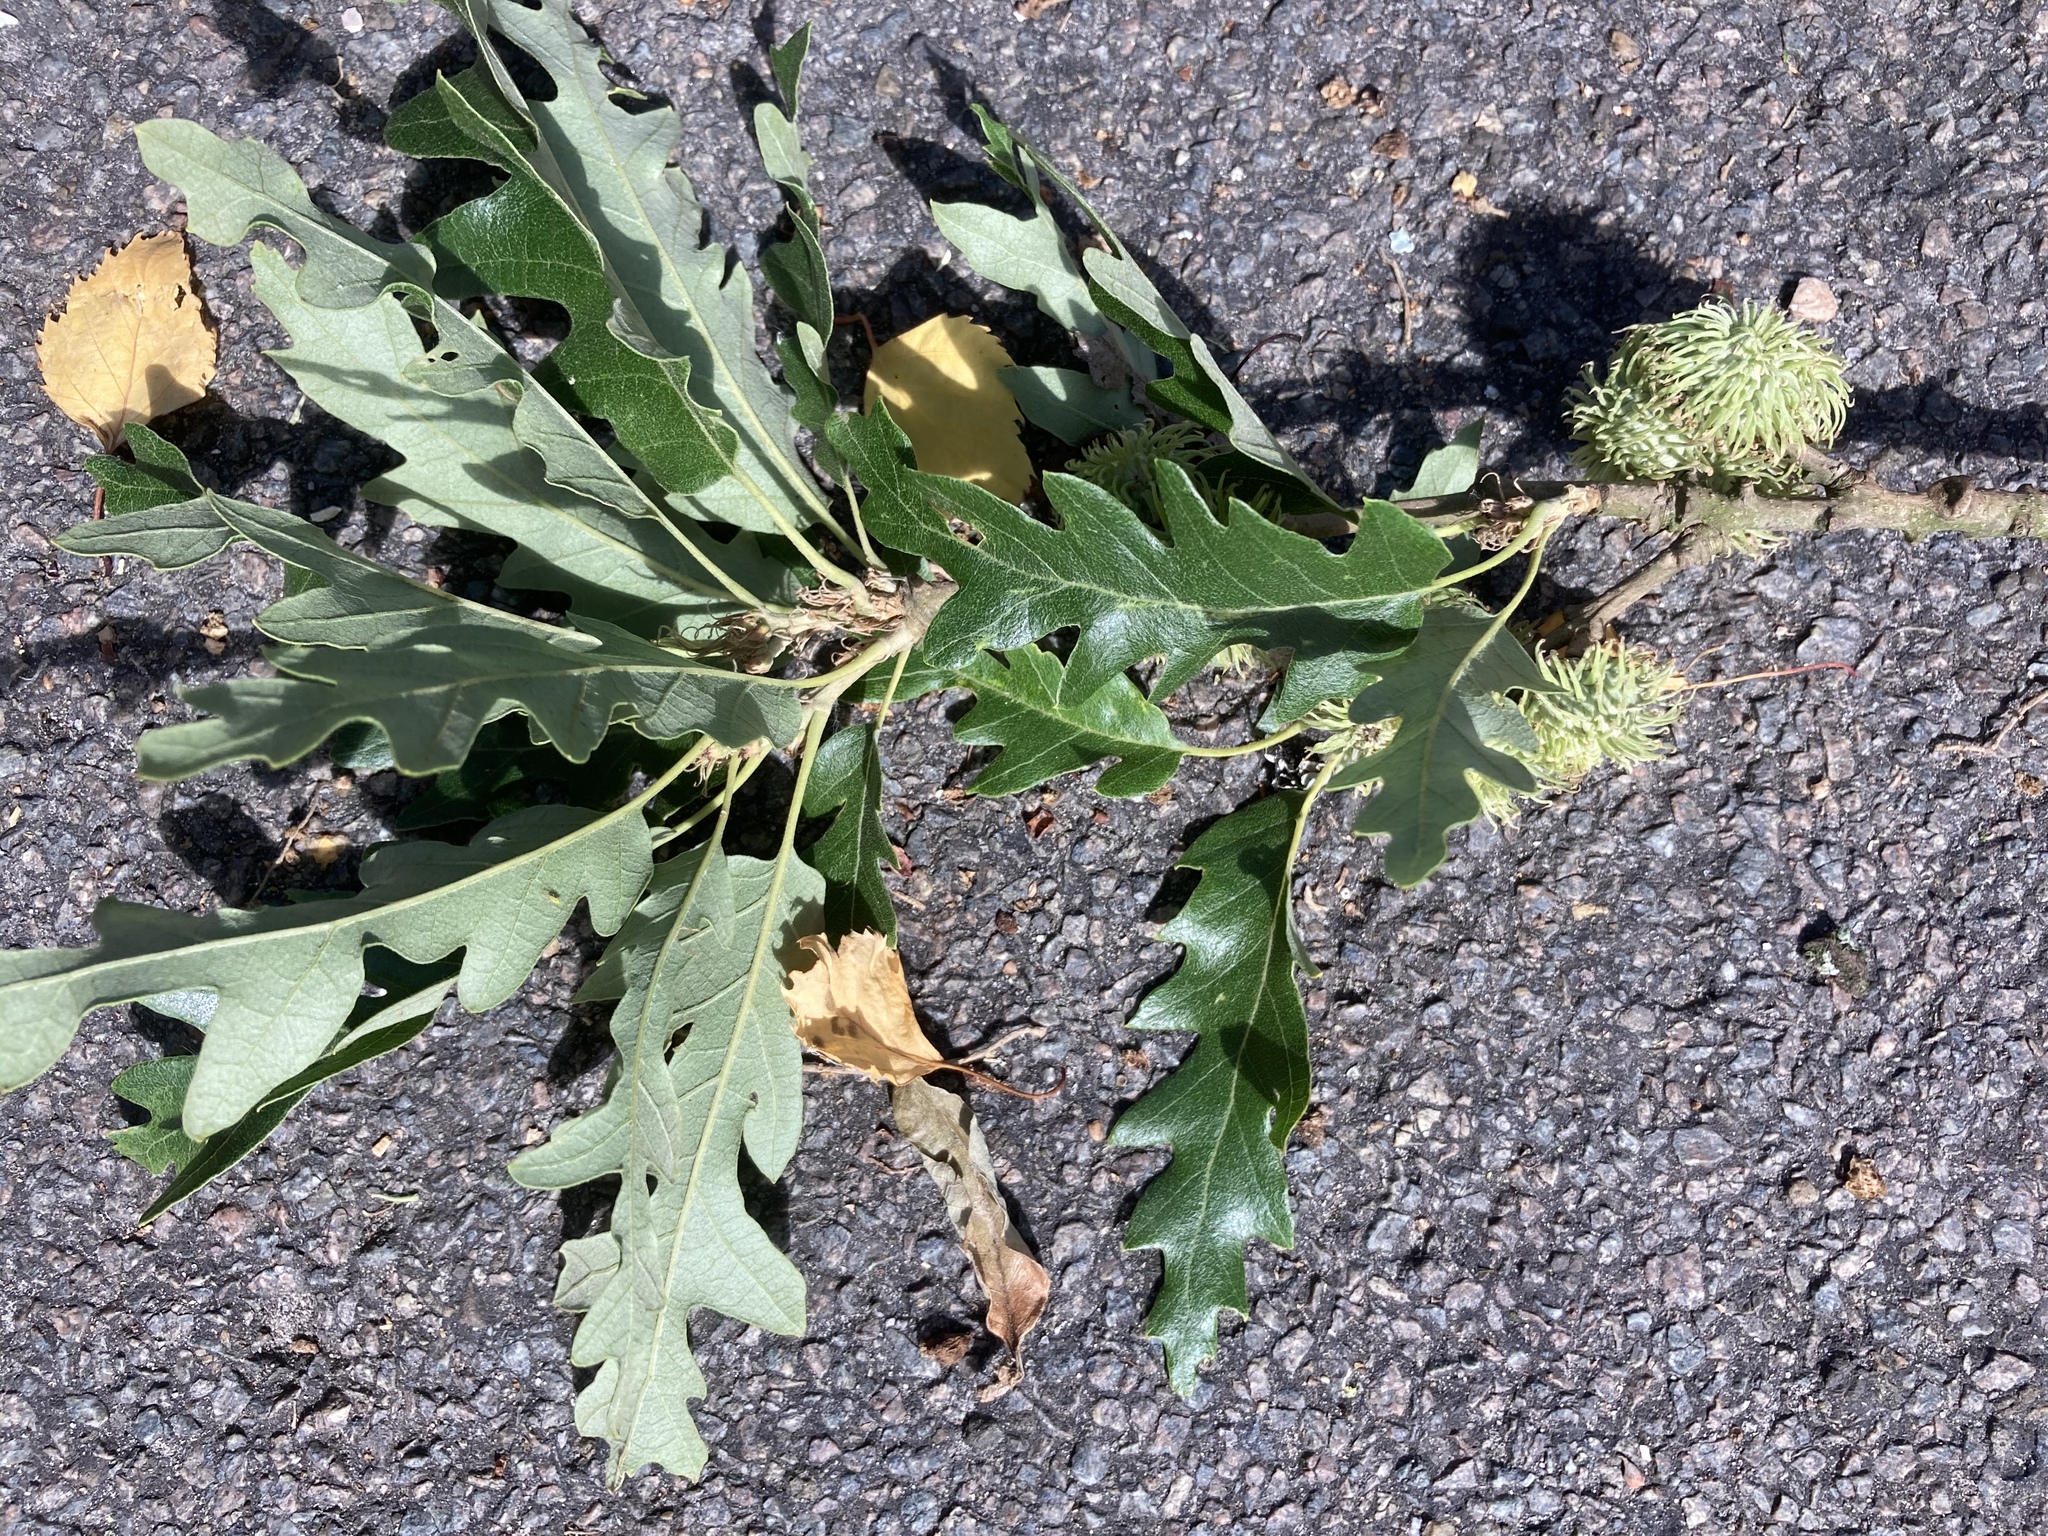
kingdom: Plantae
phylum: Tracheophyta
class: Magnoliopsida
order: Fagales
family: Fagaceae
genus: Quercus
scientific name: Quercus cerris
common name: Turkey oak
